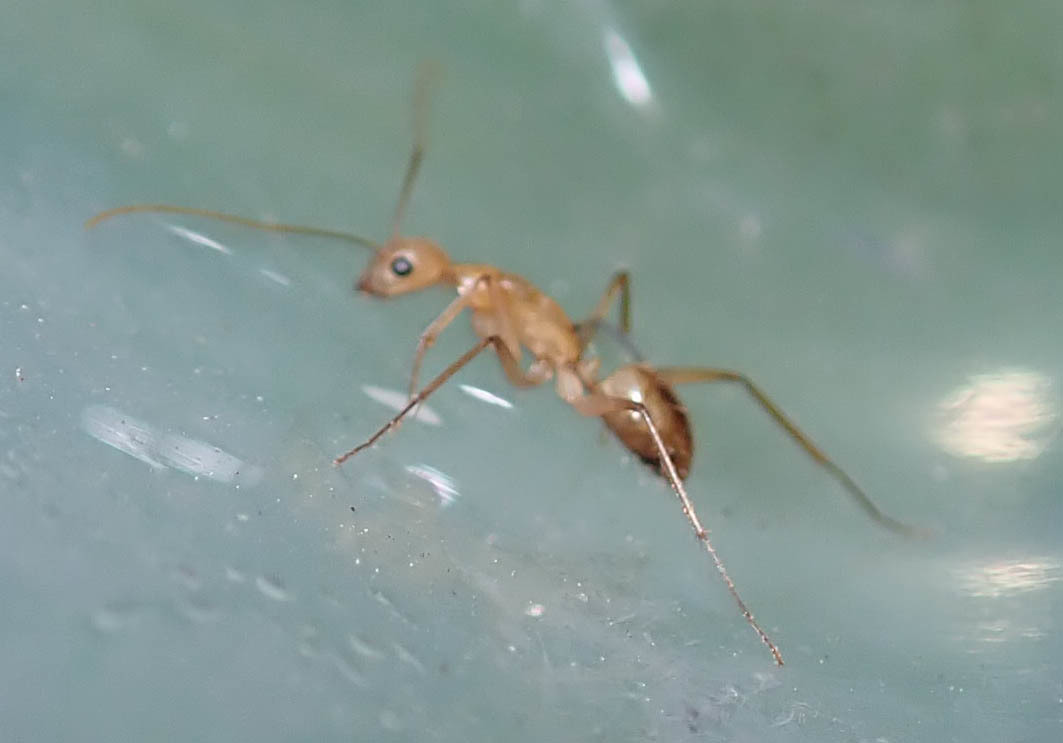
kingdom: Animalia
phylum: Arthropoda
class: Insecta
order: Hymenoptera
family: Formicidae
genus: Camponotus
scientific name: Camponotus mystaceus
